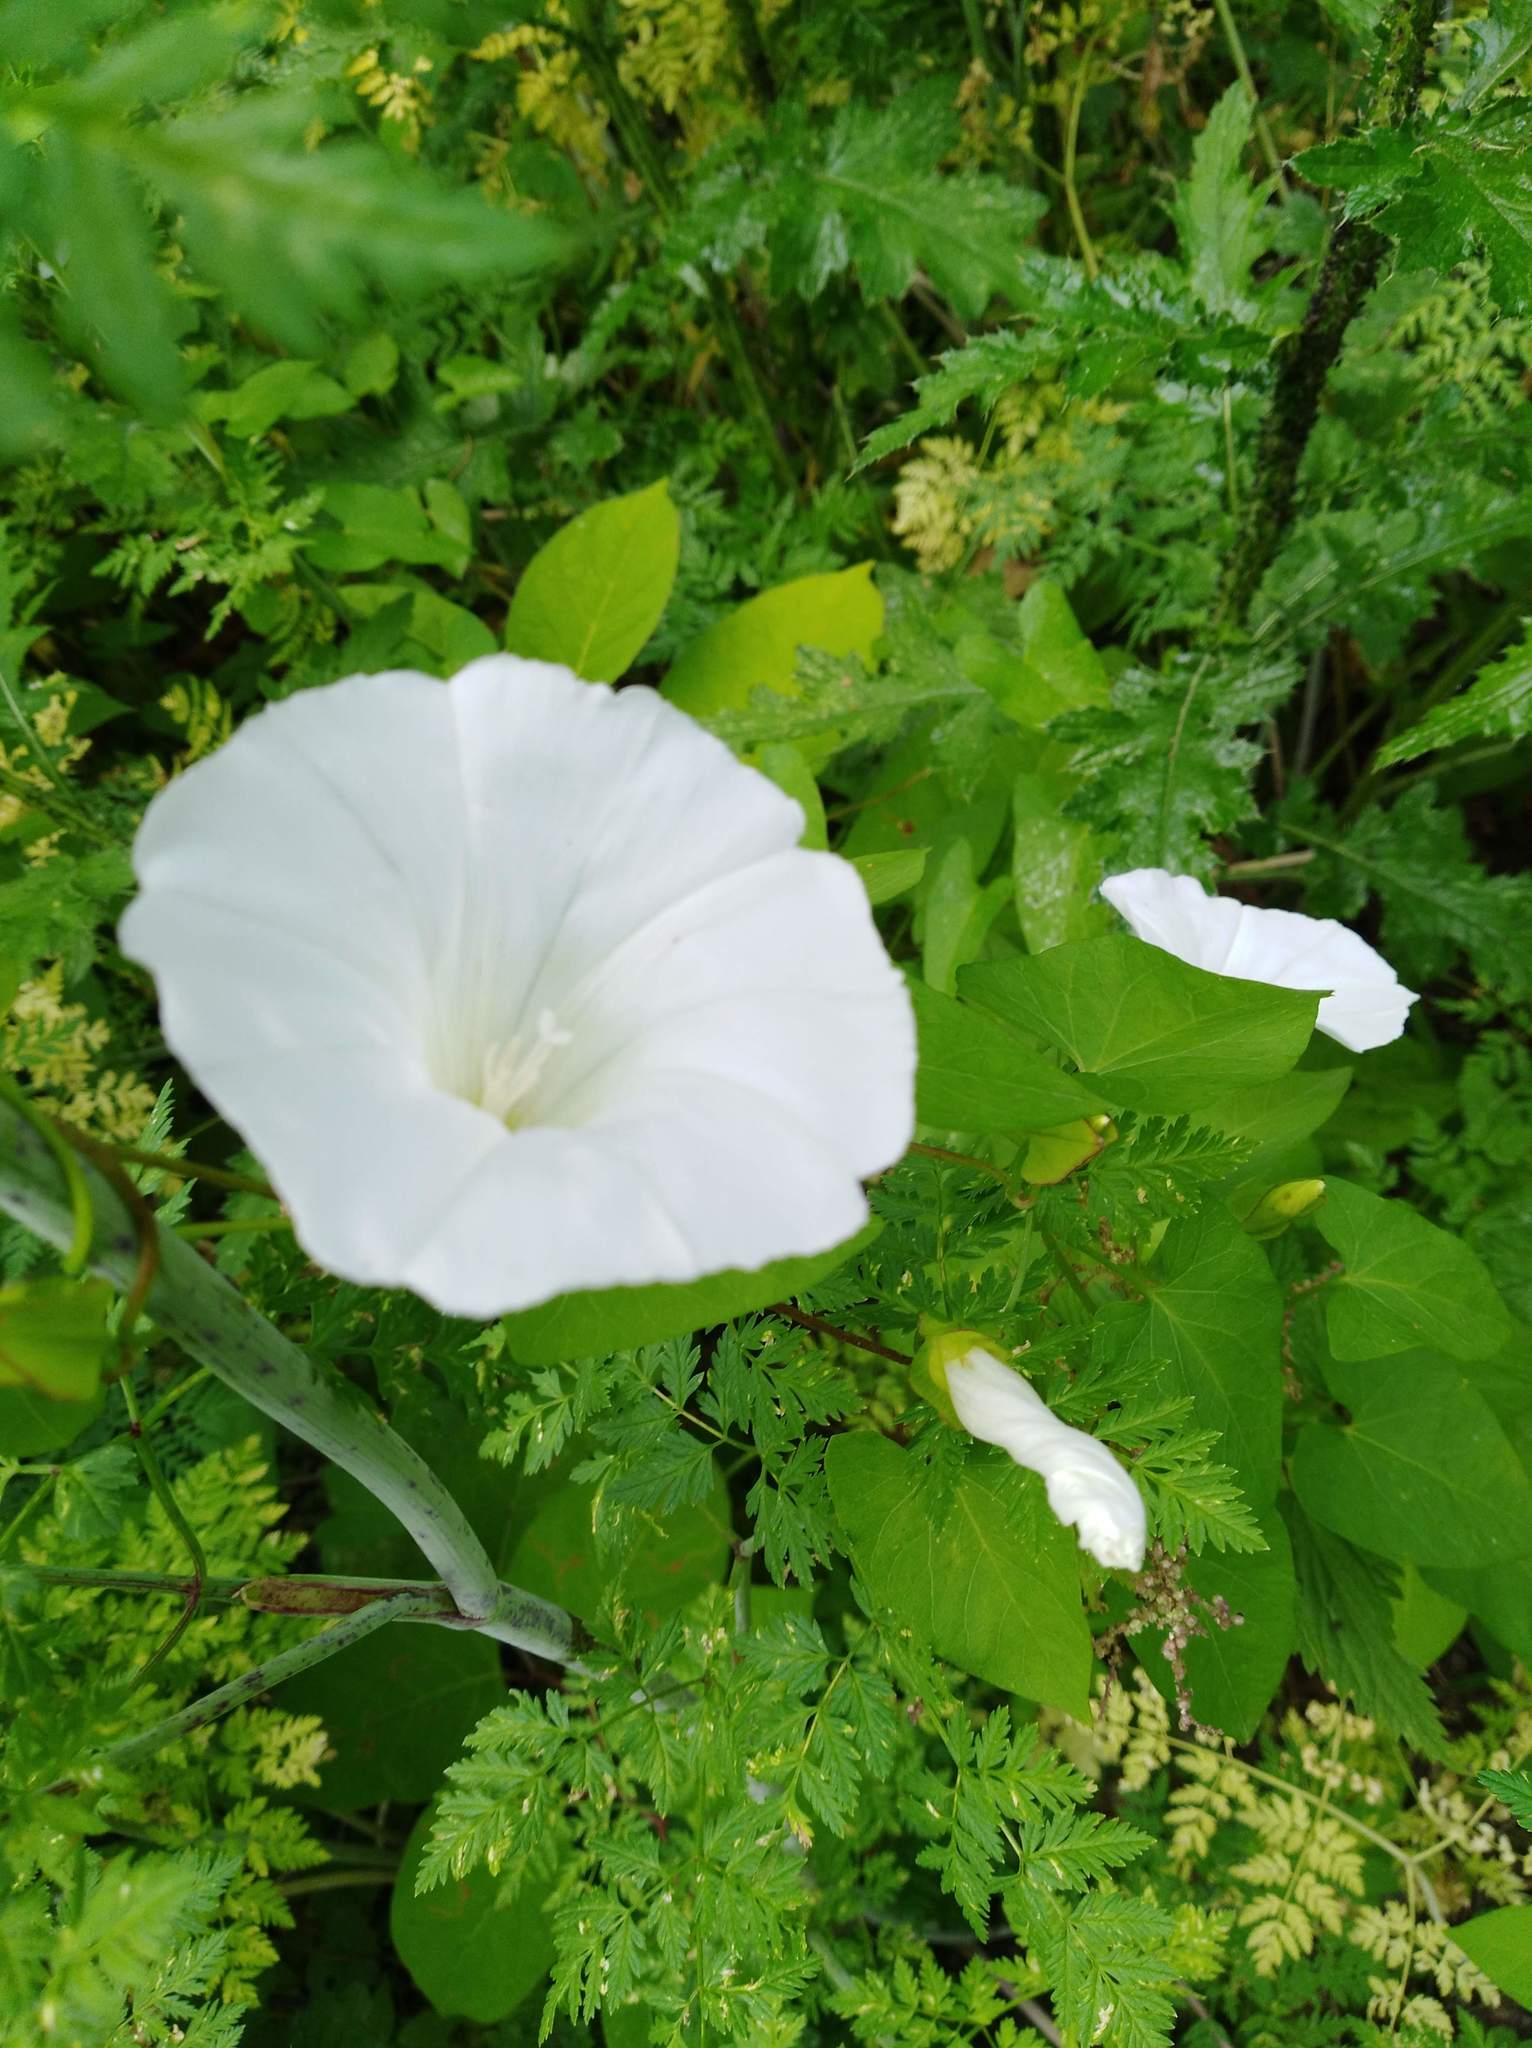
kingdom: Plantae
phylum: Tracheophyta
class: Magnoliopsida
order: Solanales
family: Convolvulaceae
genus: Calystegia
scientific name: Calystegia sepium
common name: Hedge bindweed
